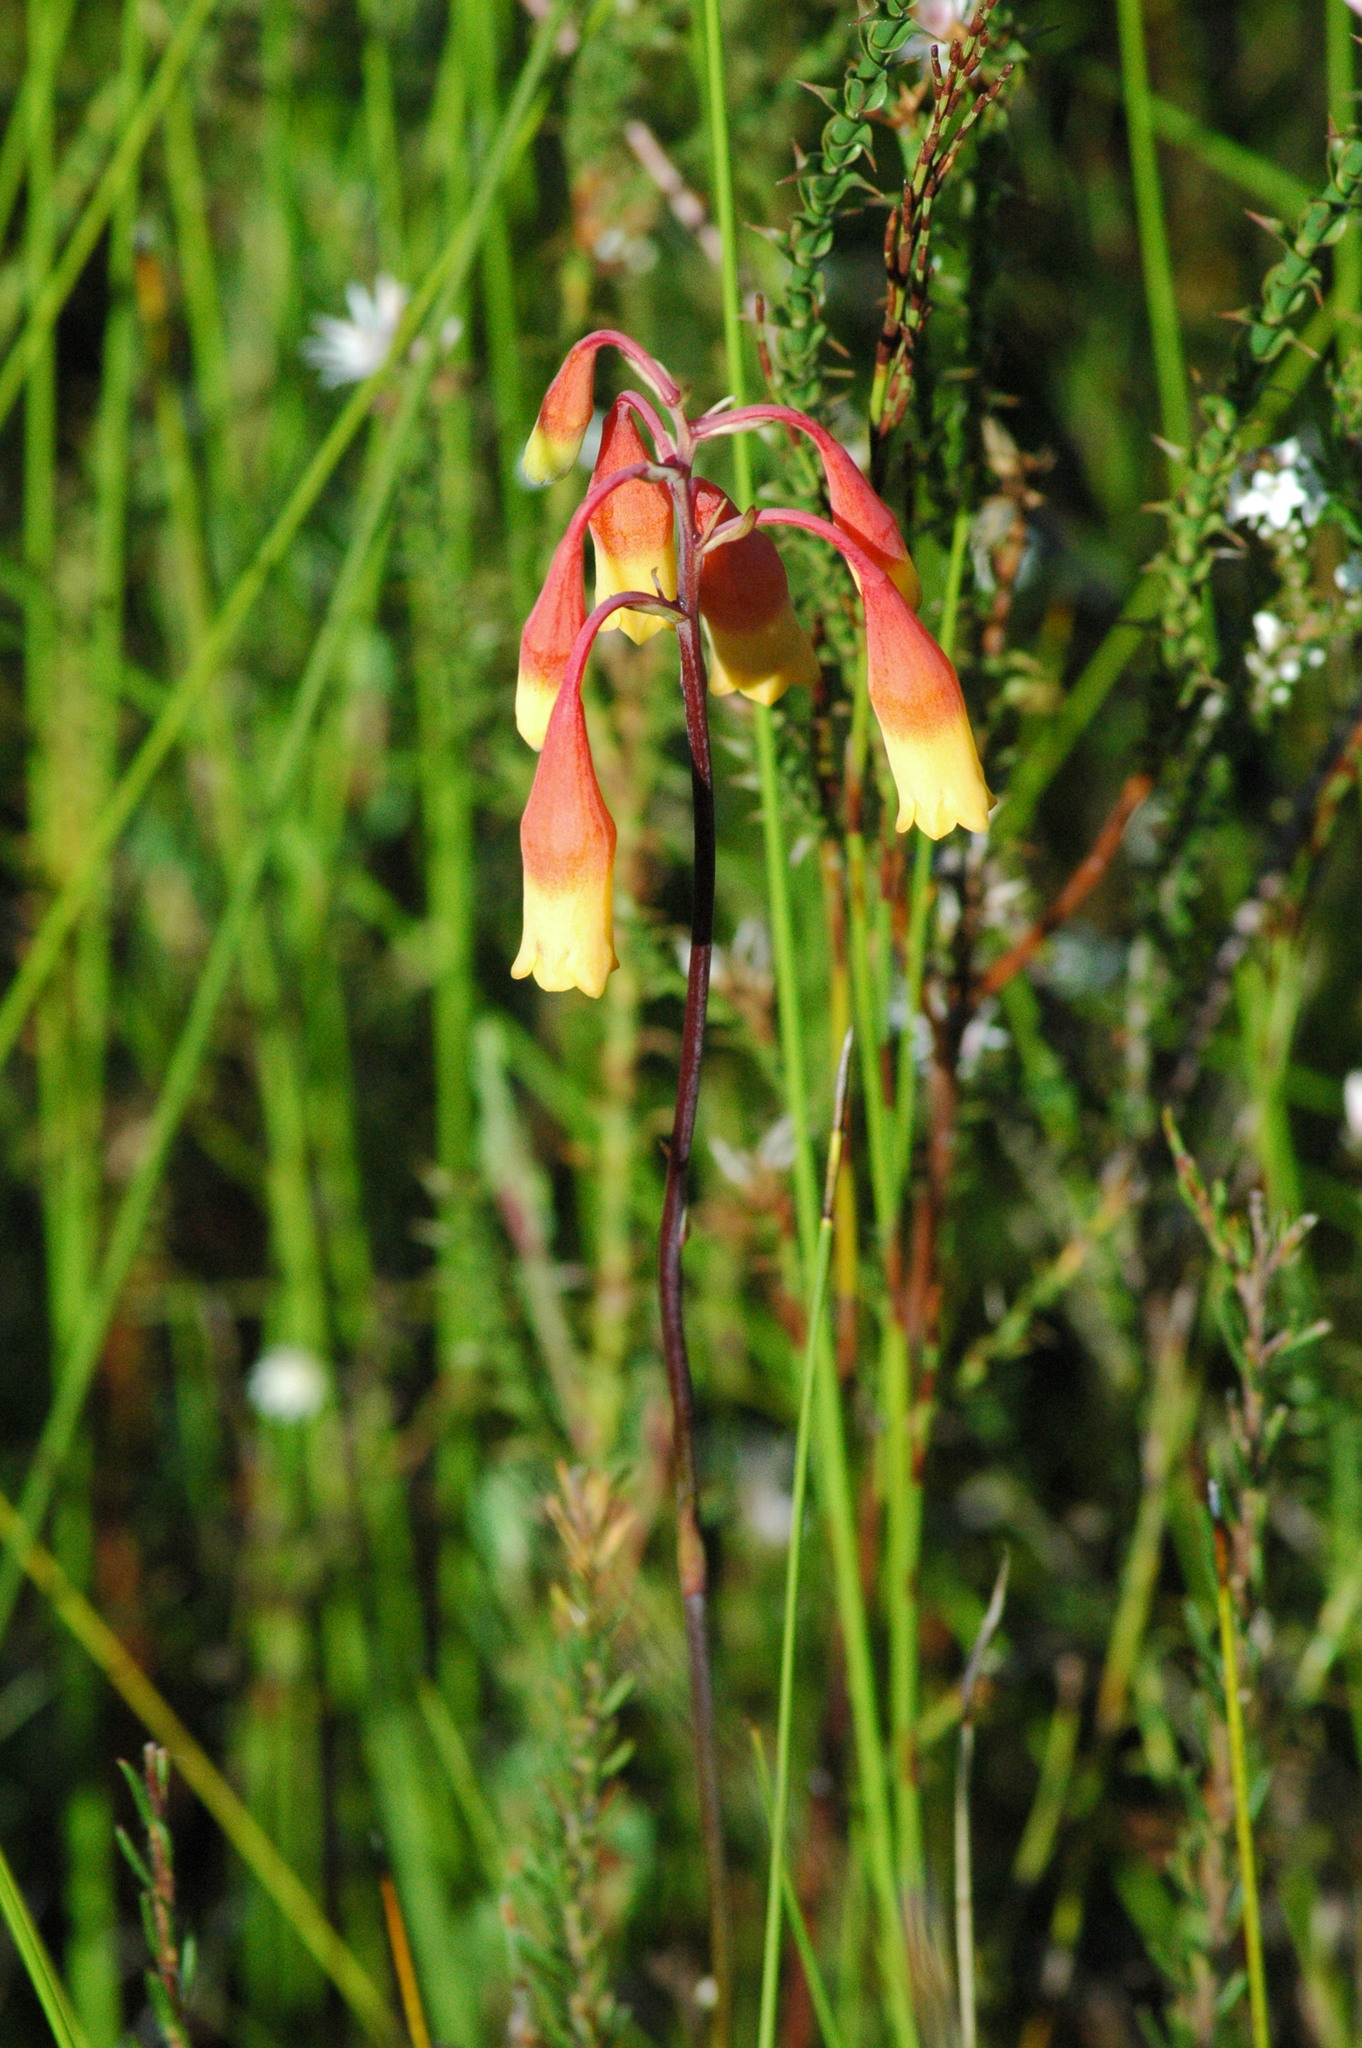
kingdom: Plantae
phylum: Tracheophyta
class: Liliopsida
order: Asparagales
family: Blandfordiaceae
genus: Blandfordia
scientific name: Blandfordia nobilis
